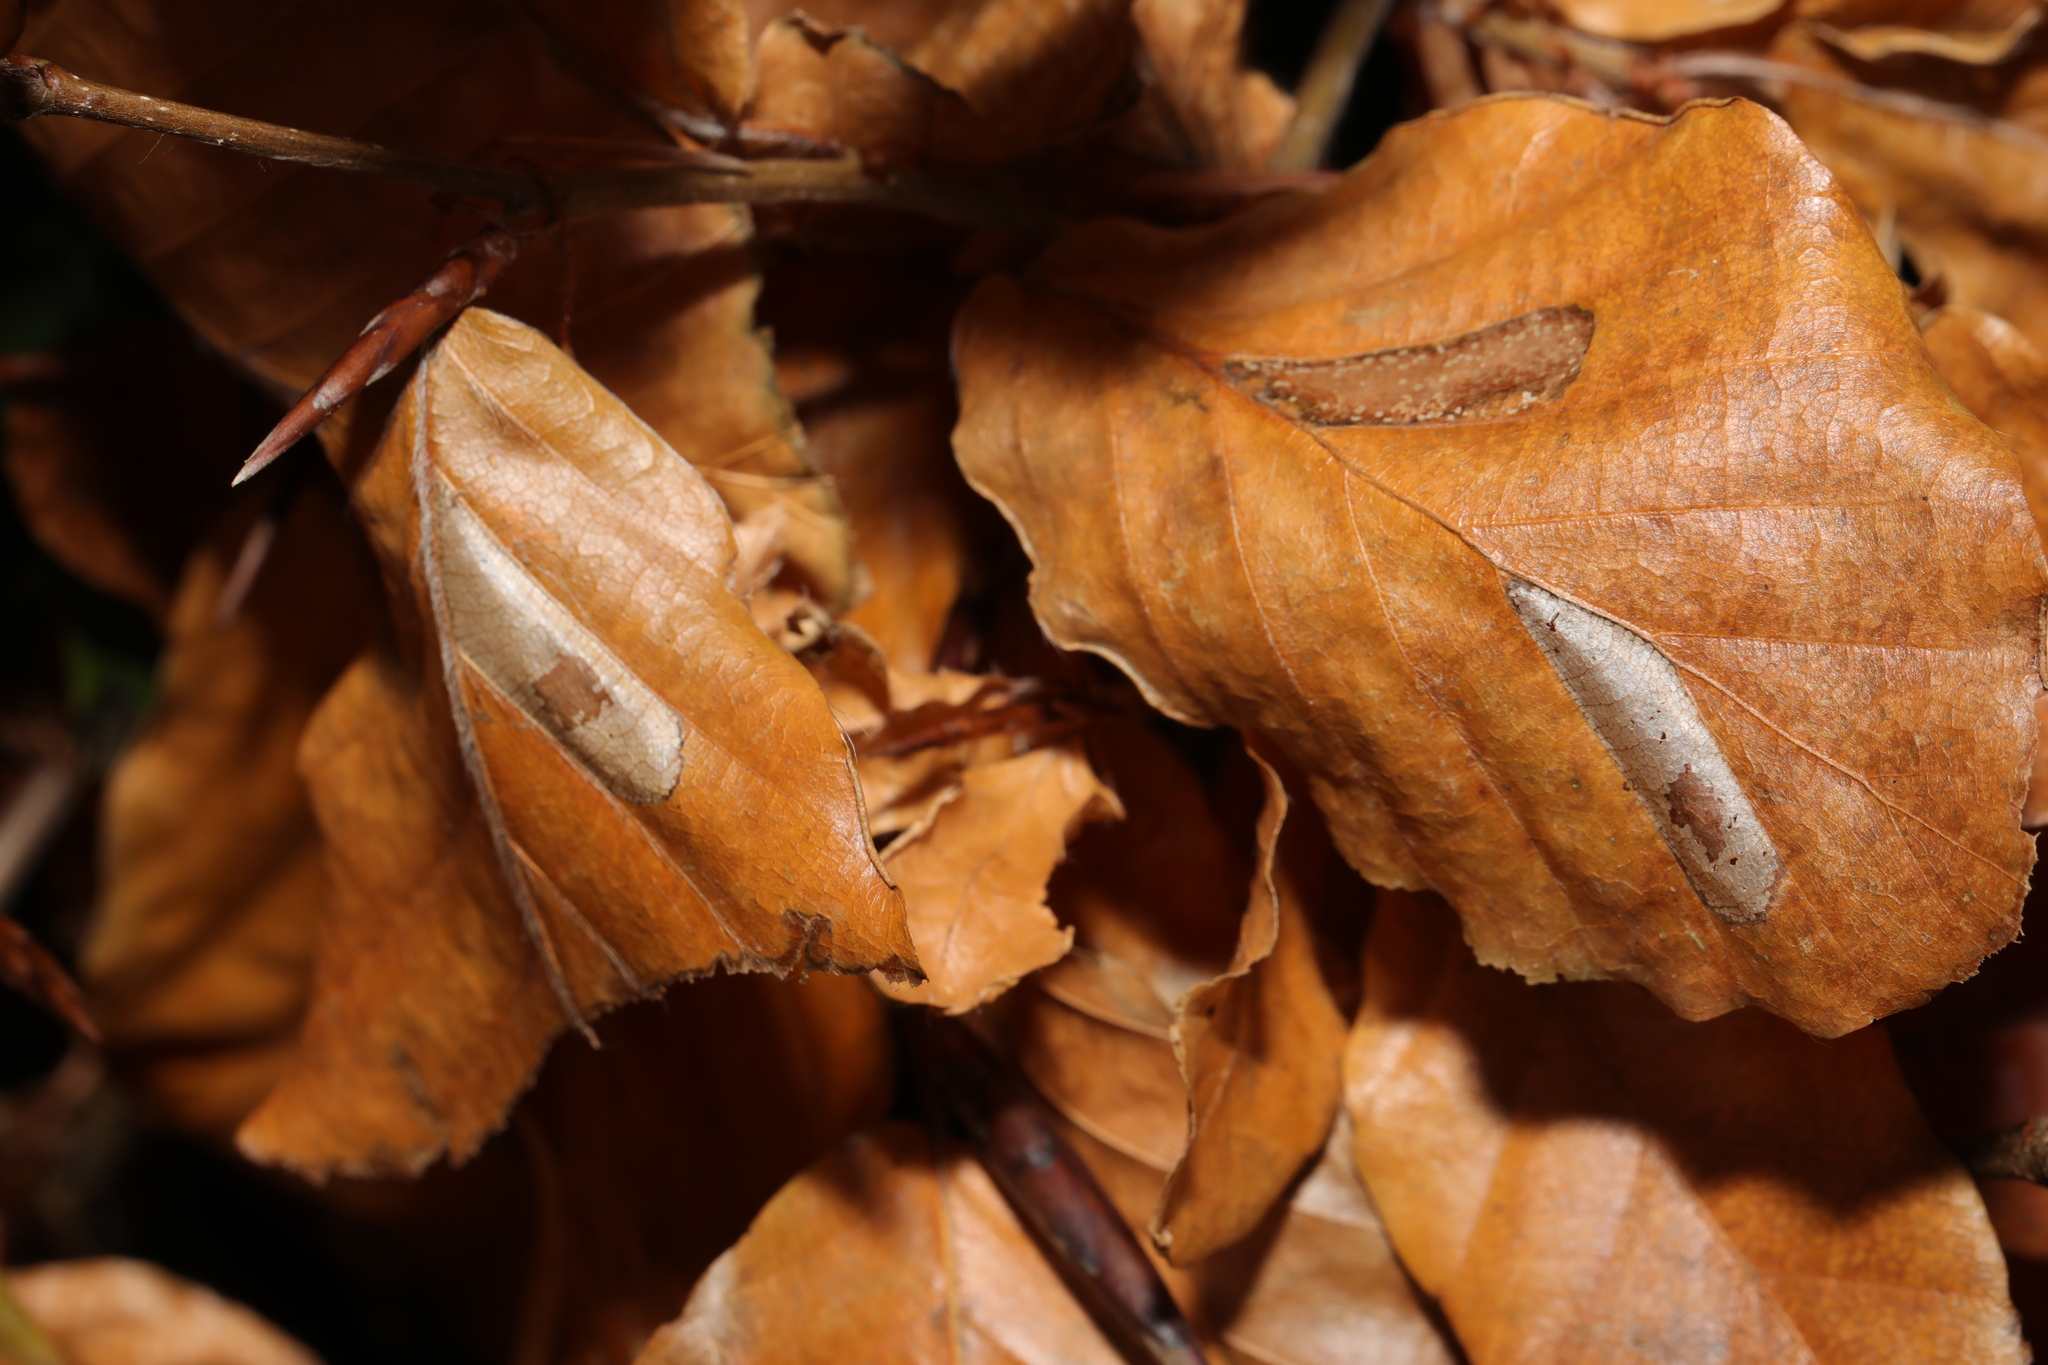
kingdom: Animalia
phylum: Arthropoda
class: Insecta
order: Lepidoptera
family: Gracillariidae
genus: Phyllonorycter
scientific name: Phyllonorycter maestingella
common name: Beech midget
